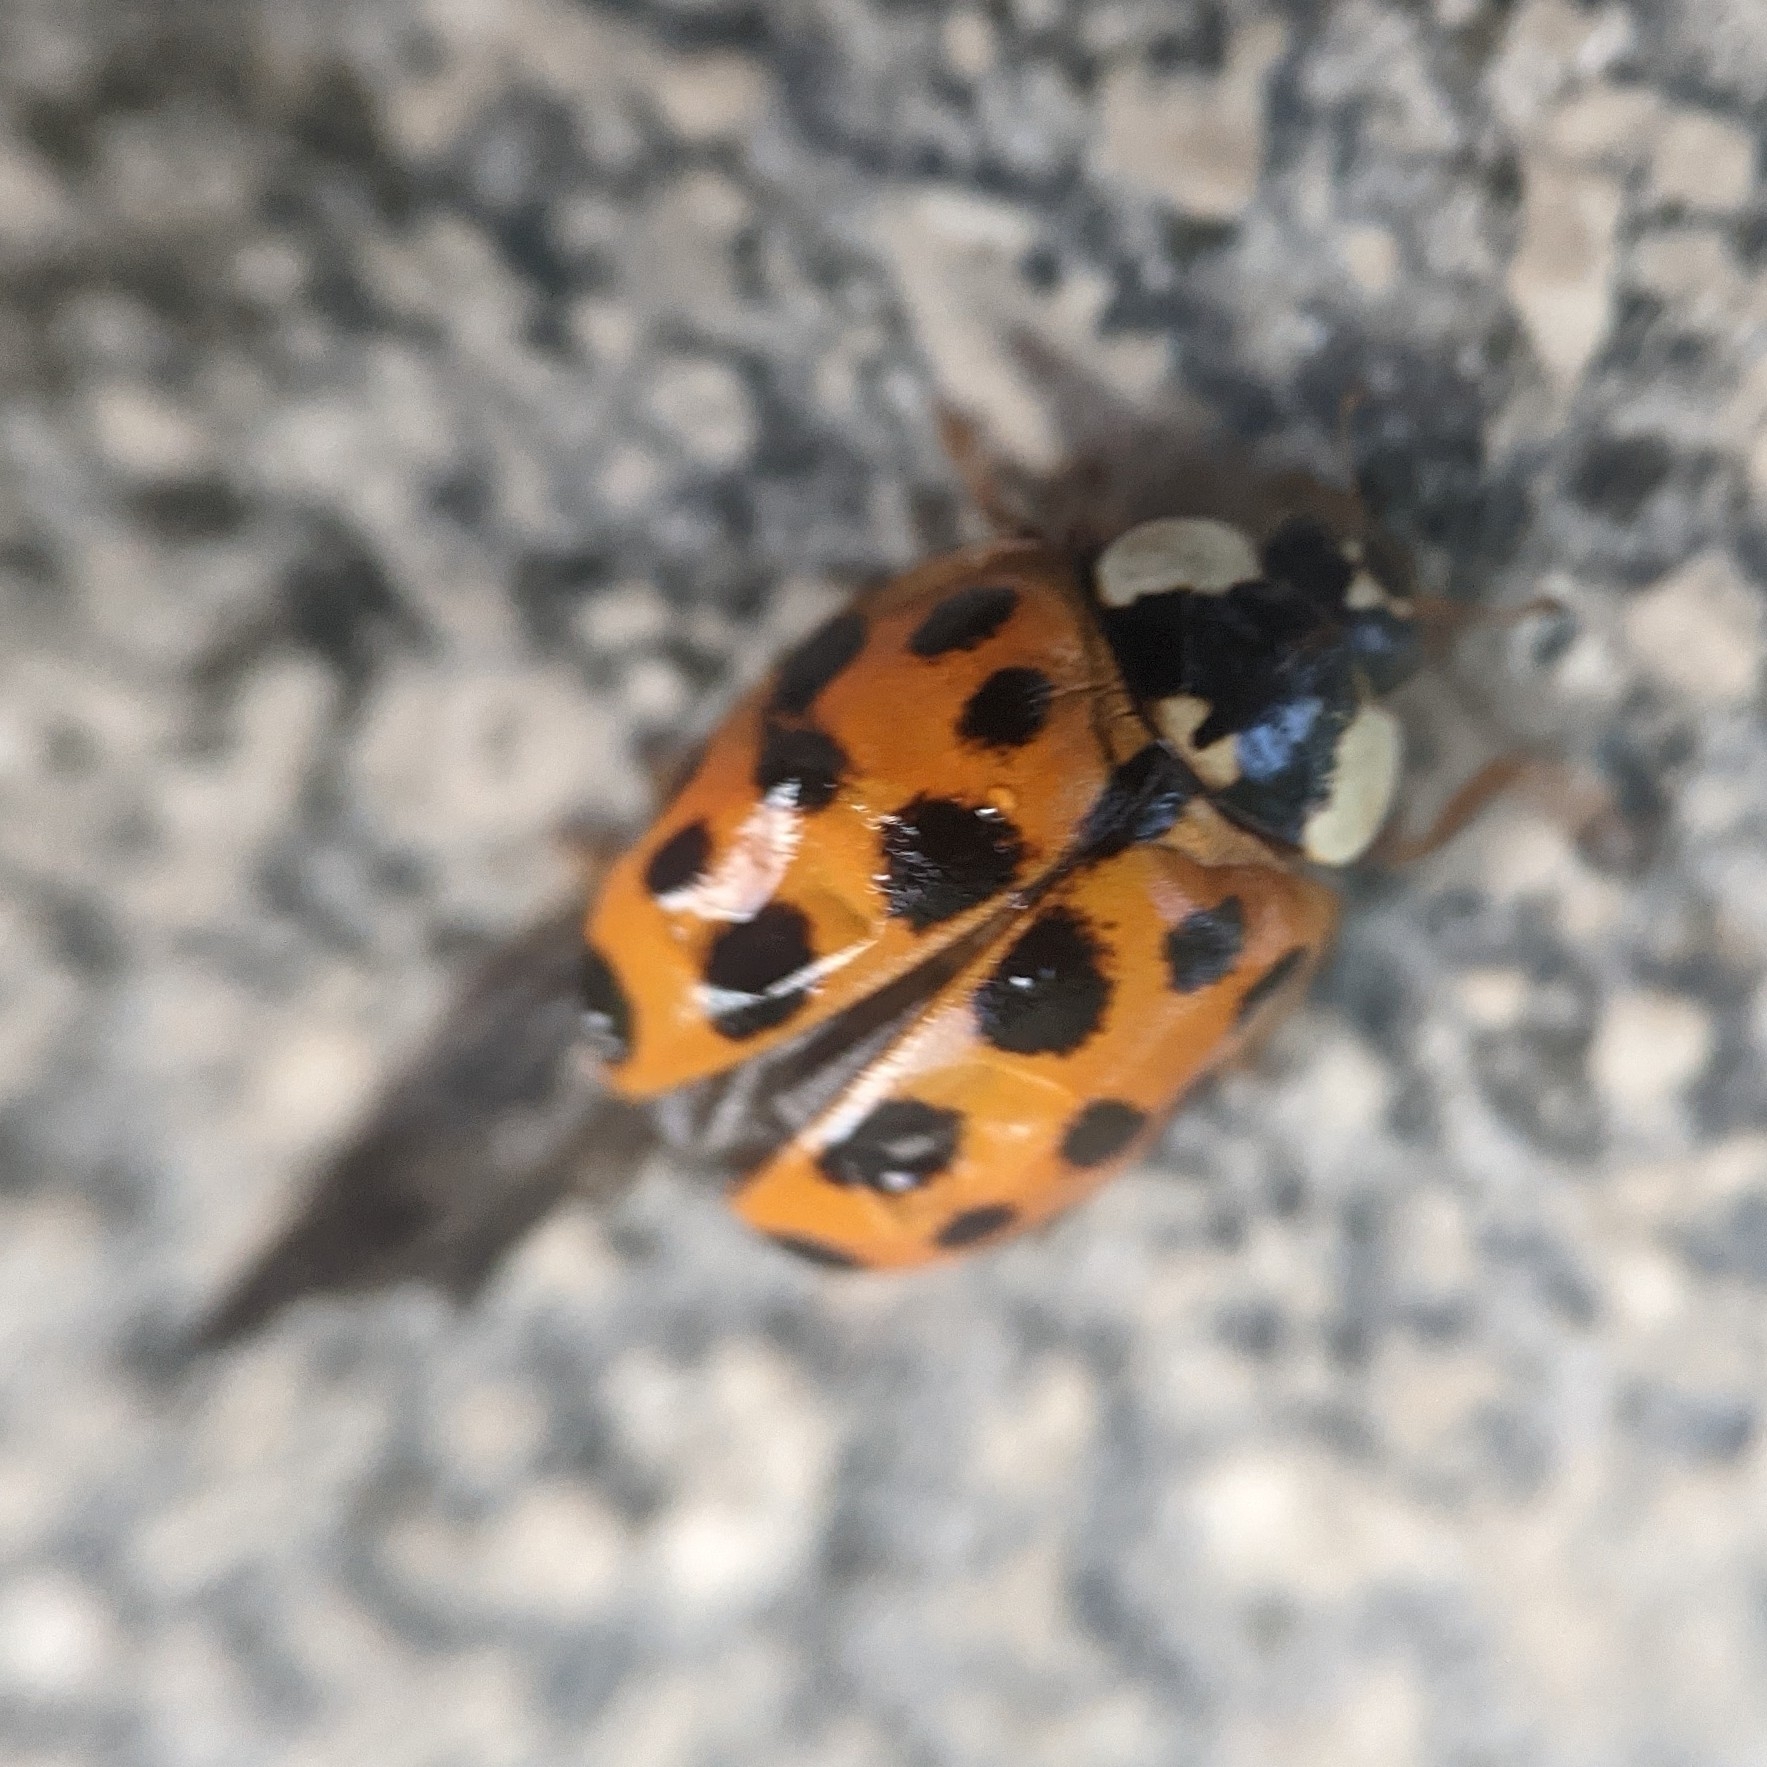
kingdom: Animalia
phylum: Arthropoda
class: Insecta
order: Coleoptera
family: Coccinellidae
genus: Harmonia
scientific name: Harmonia axyridis
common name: Harlequin ladybird
